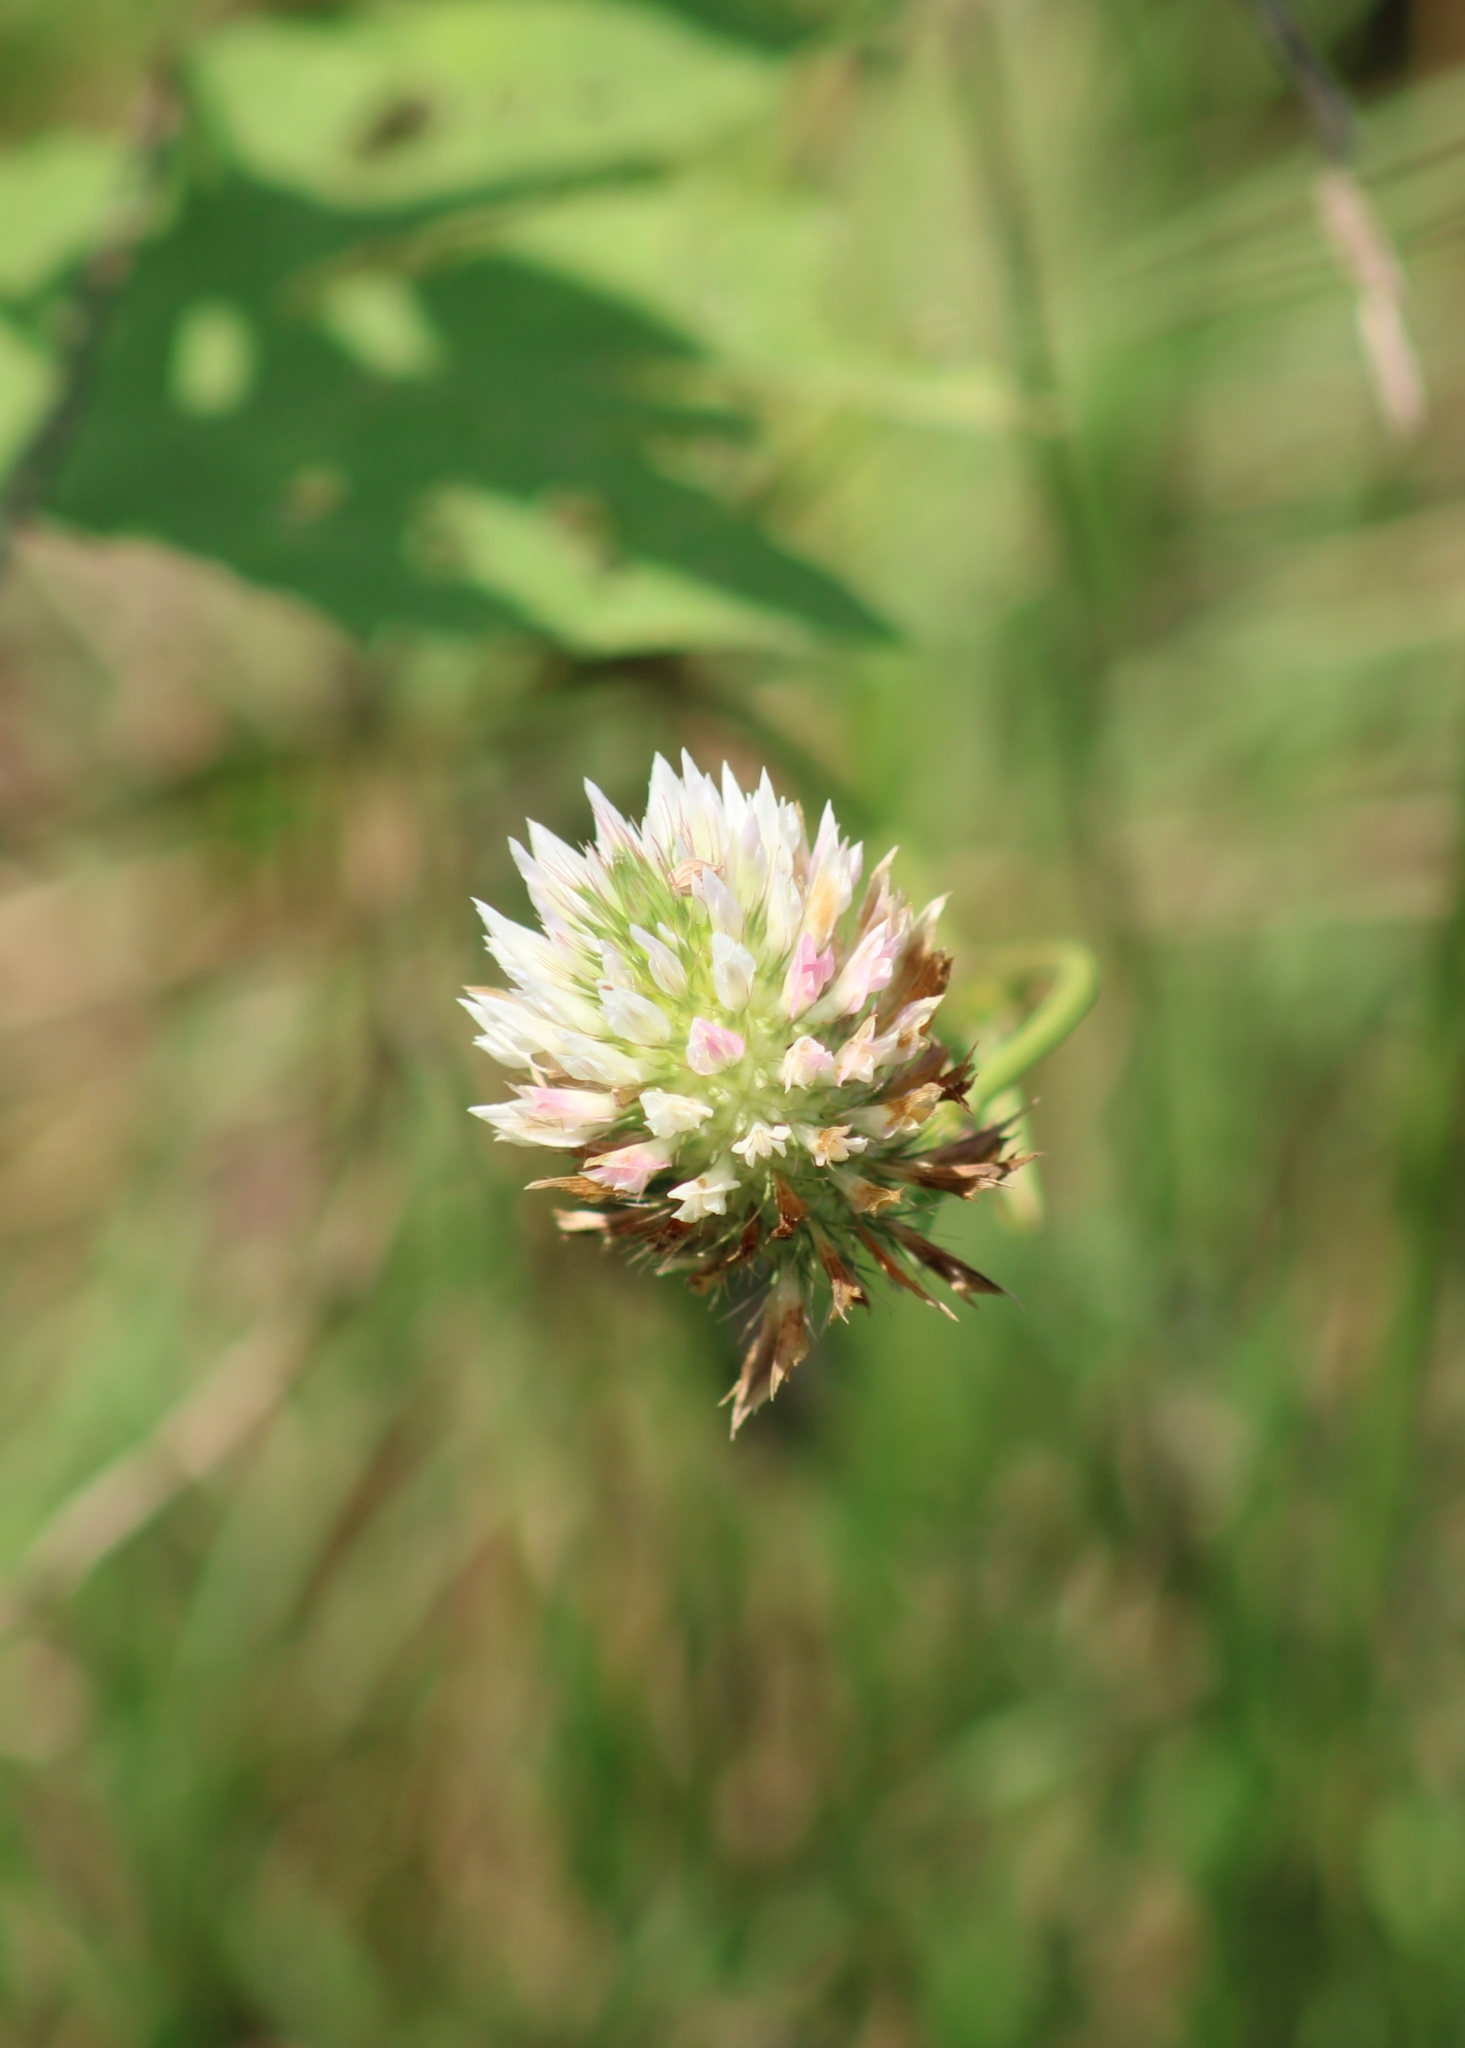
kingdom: Plantae
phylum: Tracheophyta
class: Magnoliopsida
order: Fabales
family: Fabaceae
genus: Trifolium
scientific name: Trifolium vesiculosum
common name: Arrowleaf clover
